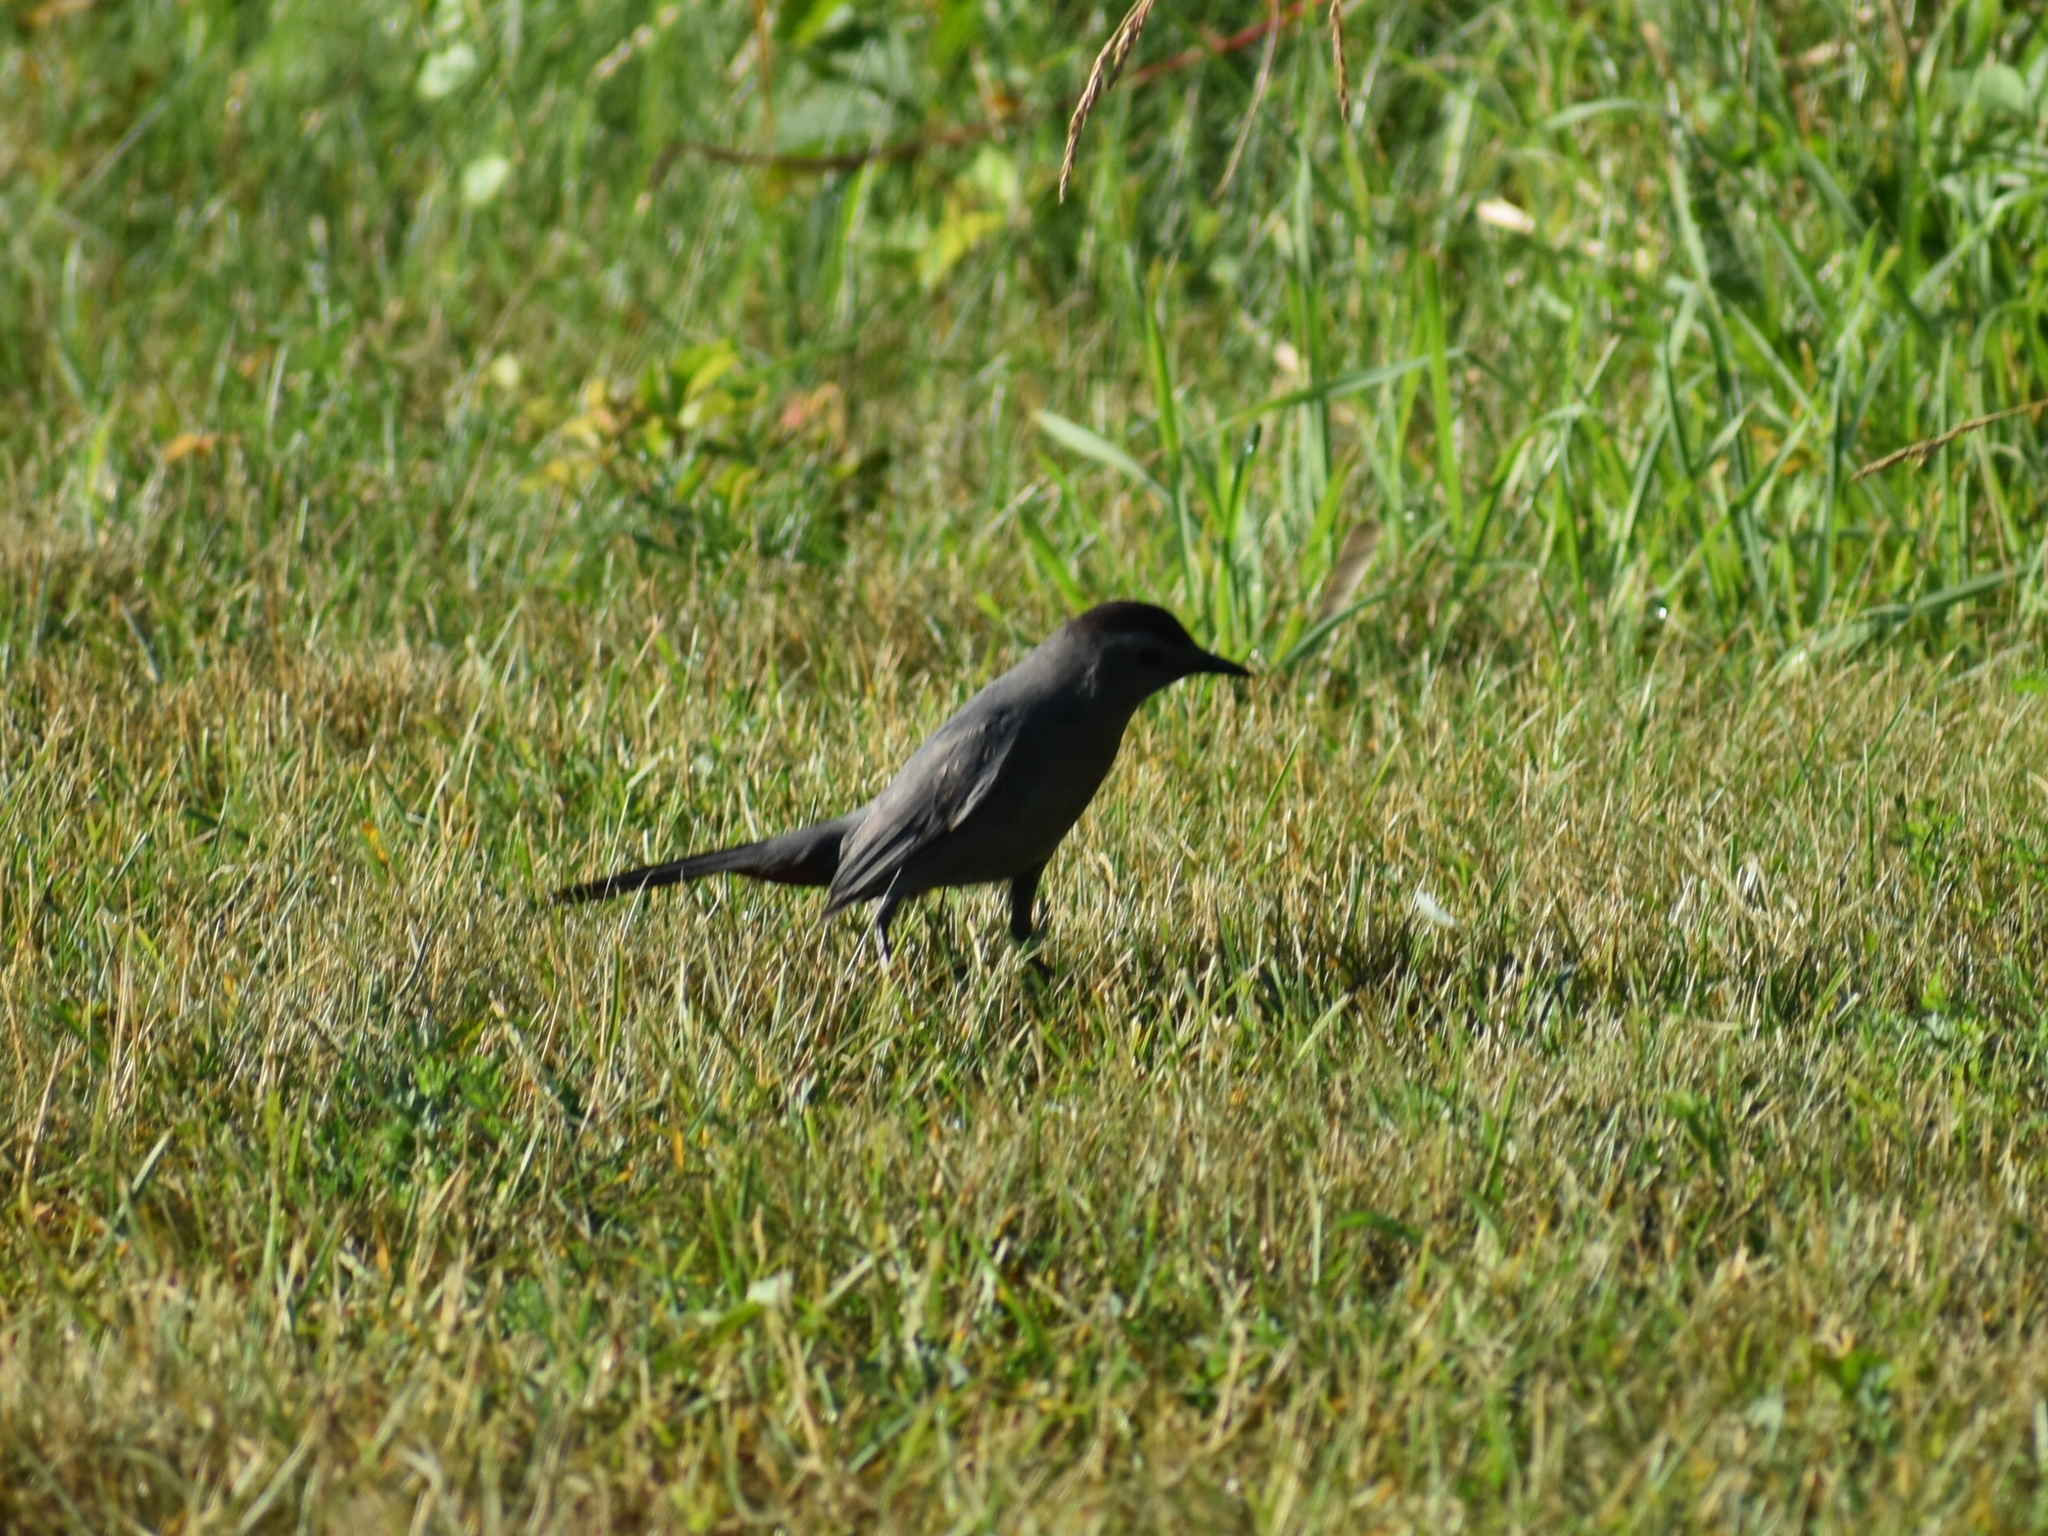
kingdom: Animalia
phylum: Chordata
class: Aves
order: Passeriformes
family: Mimidae
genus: Dumetella
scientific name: Dumetella carolinensis
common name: Gray catbird
